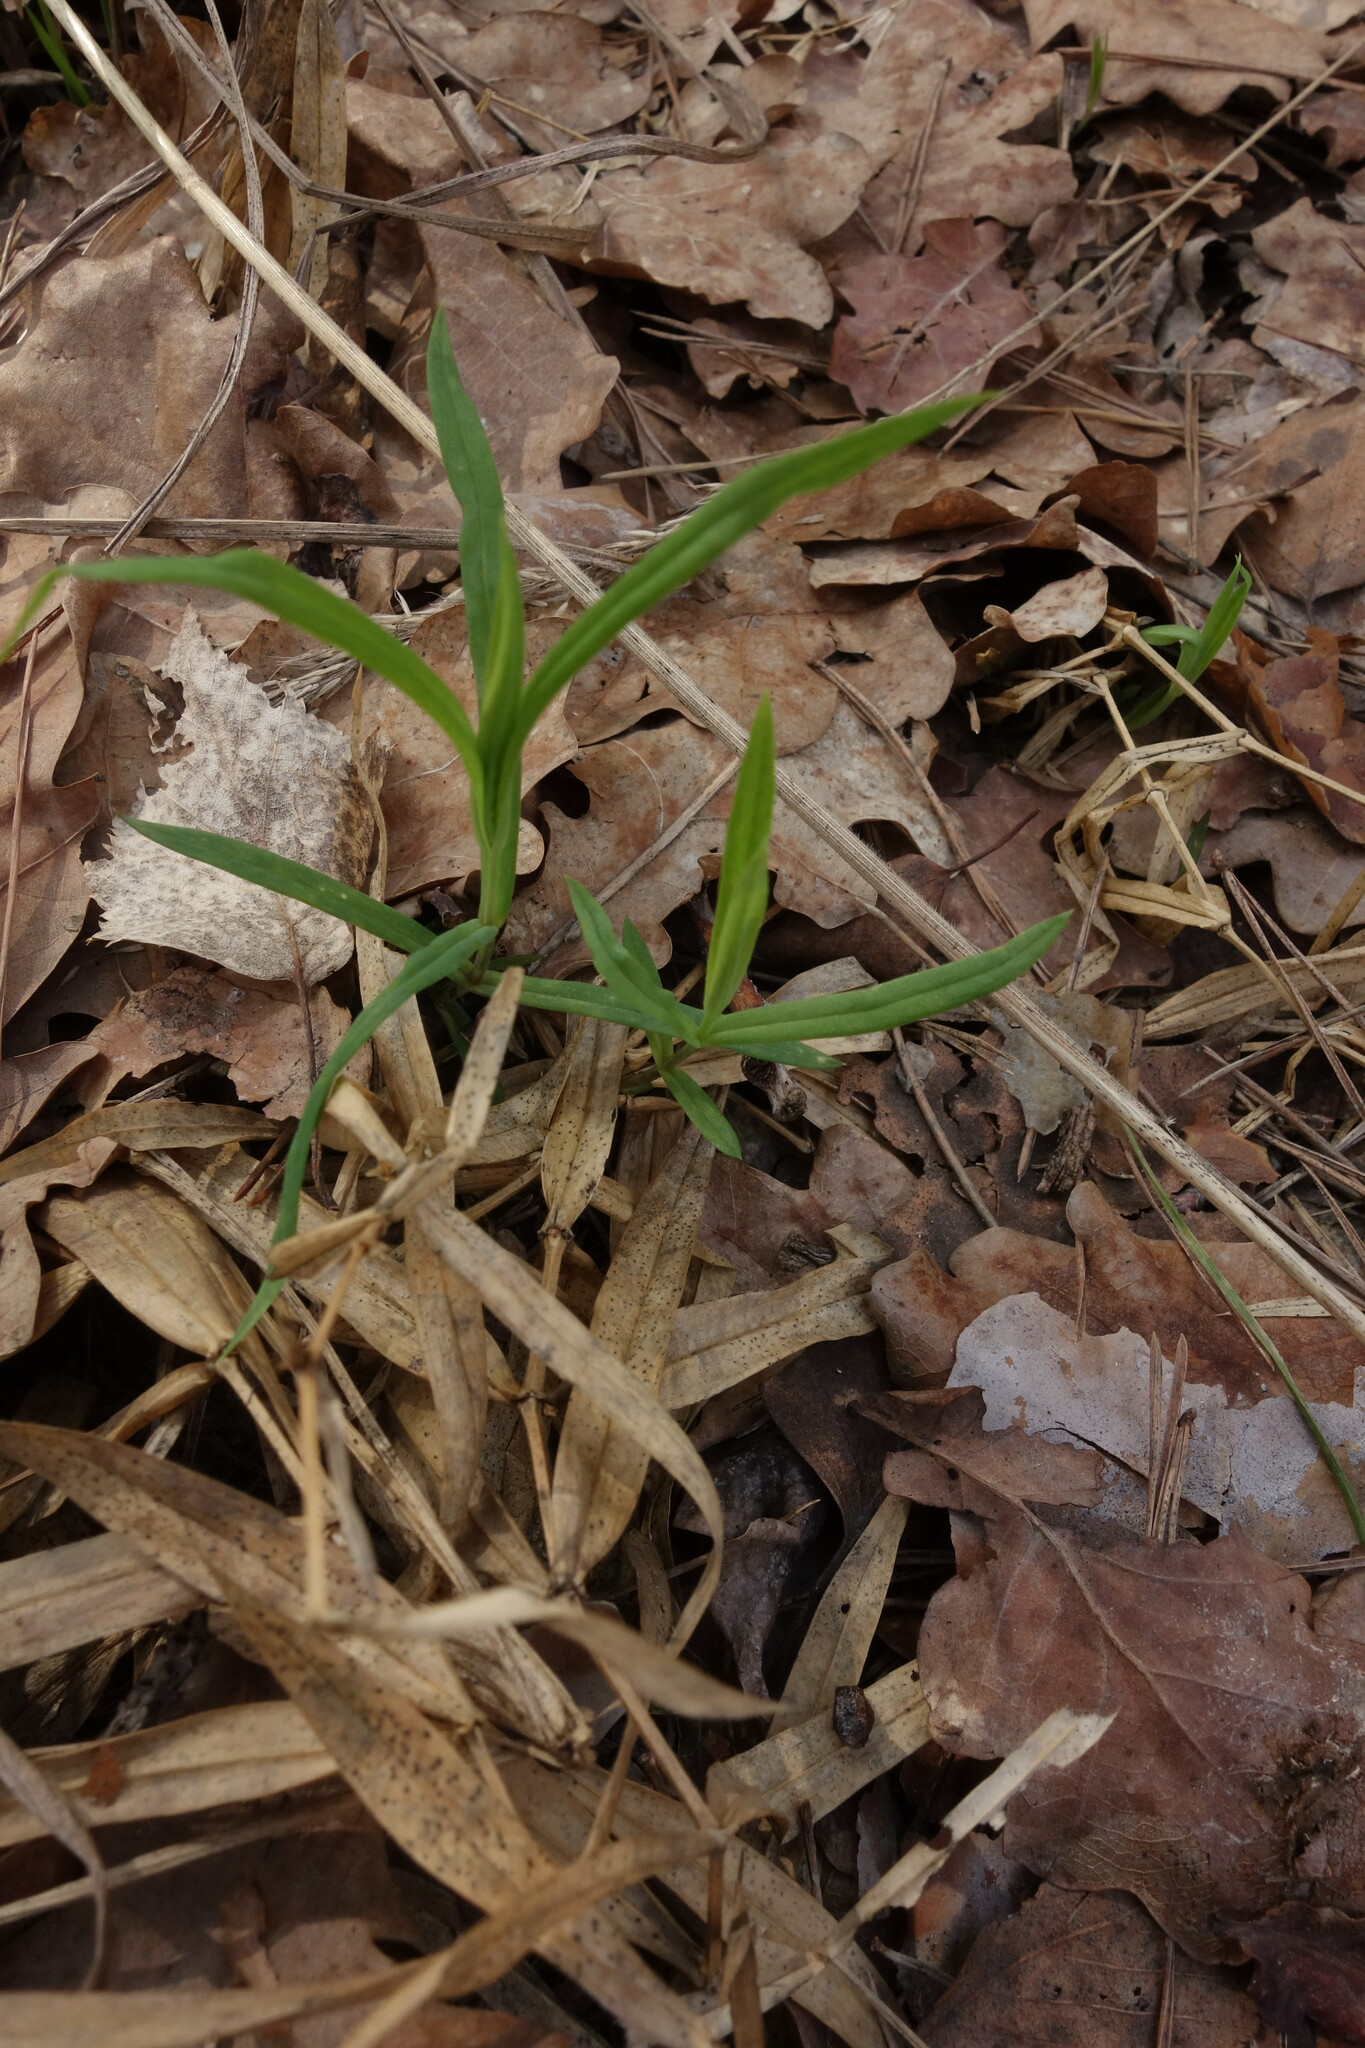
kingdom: Plantae
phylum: Tracheophyta
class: Magnoliopsida
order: Caryophyllales
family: Caryophyllaceae
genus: Rabelera
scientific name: Rabelera holostea
